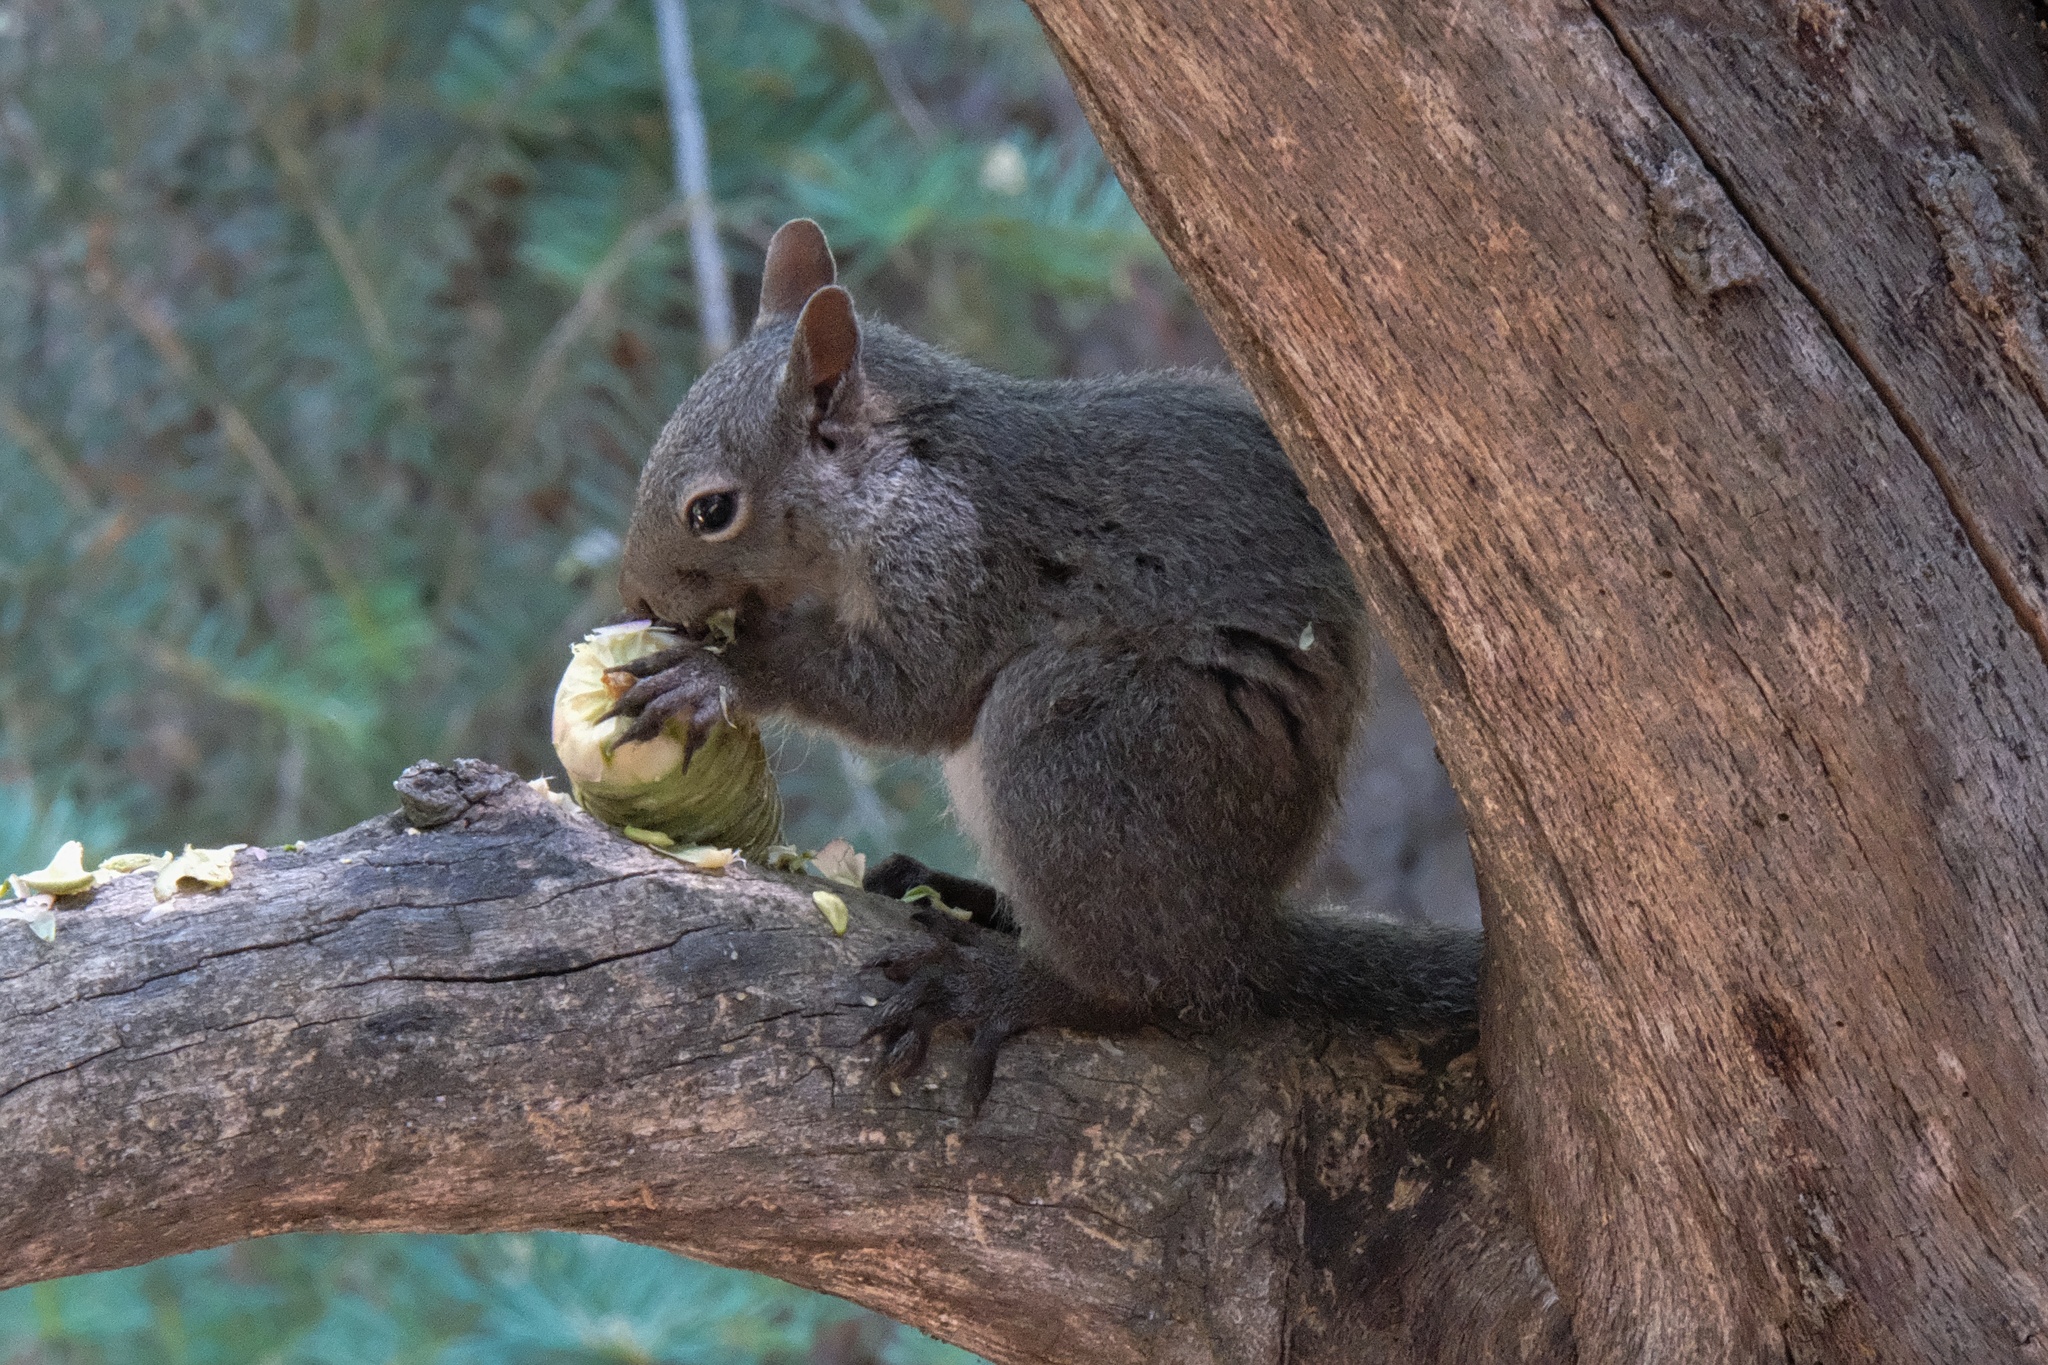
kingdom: Animalia
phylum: Chordata
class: Mammalia
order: Rodentia
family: Sciuridae
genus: Sciurus
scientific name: Sciurus griseus
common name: Western gray squirrel
